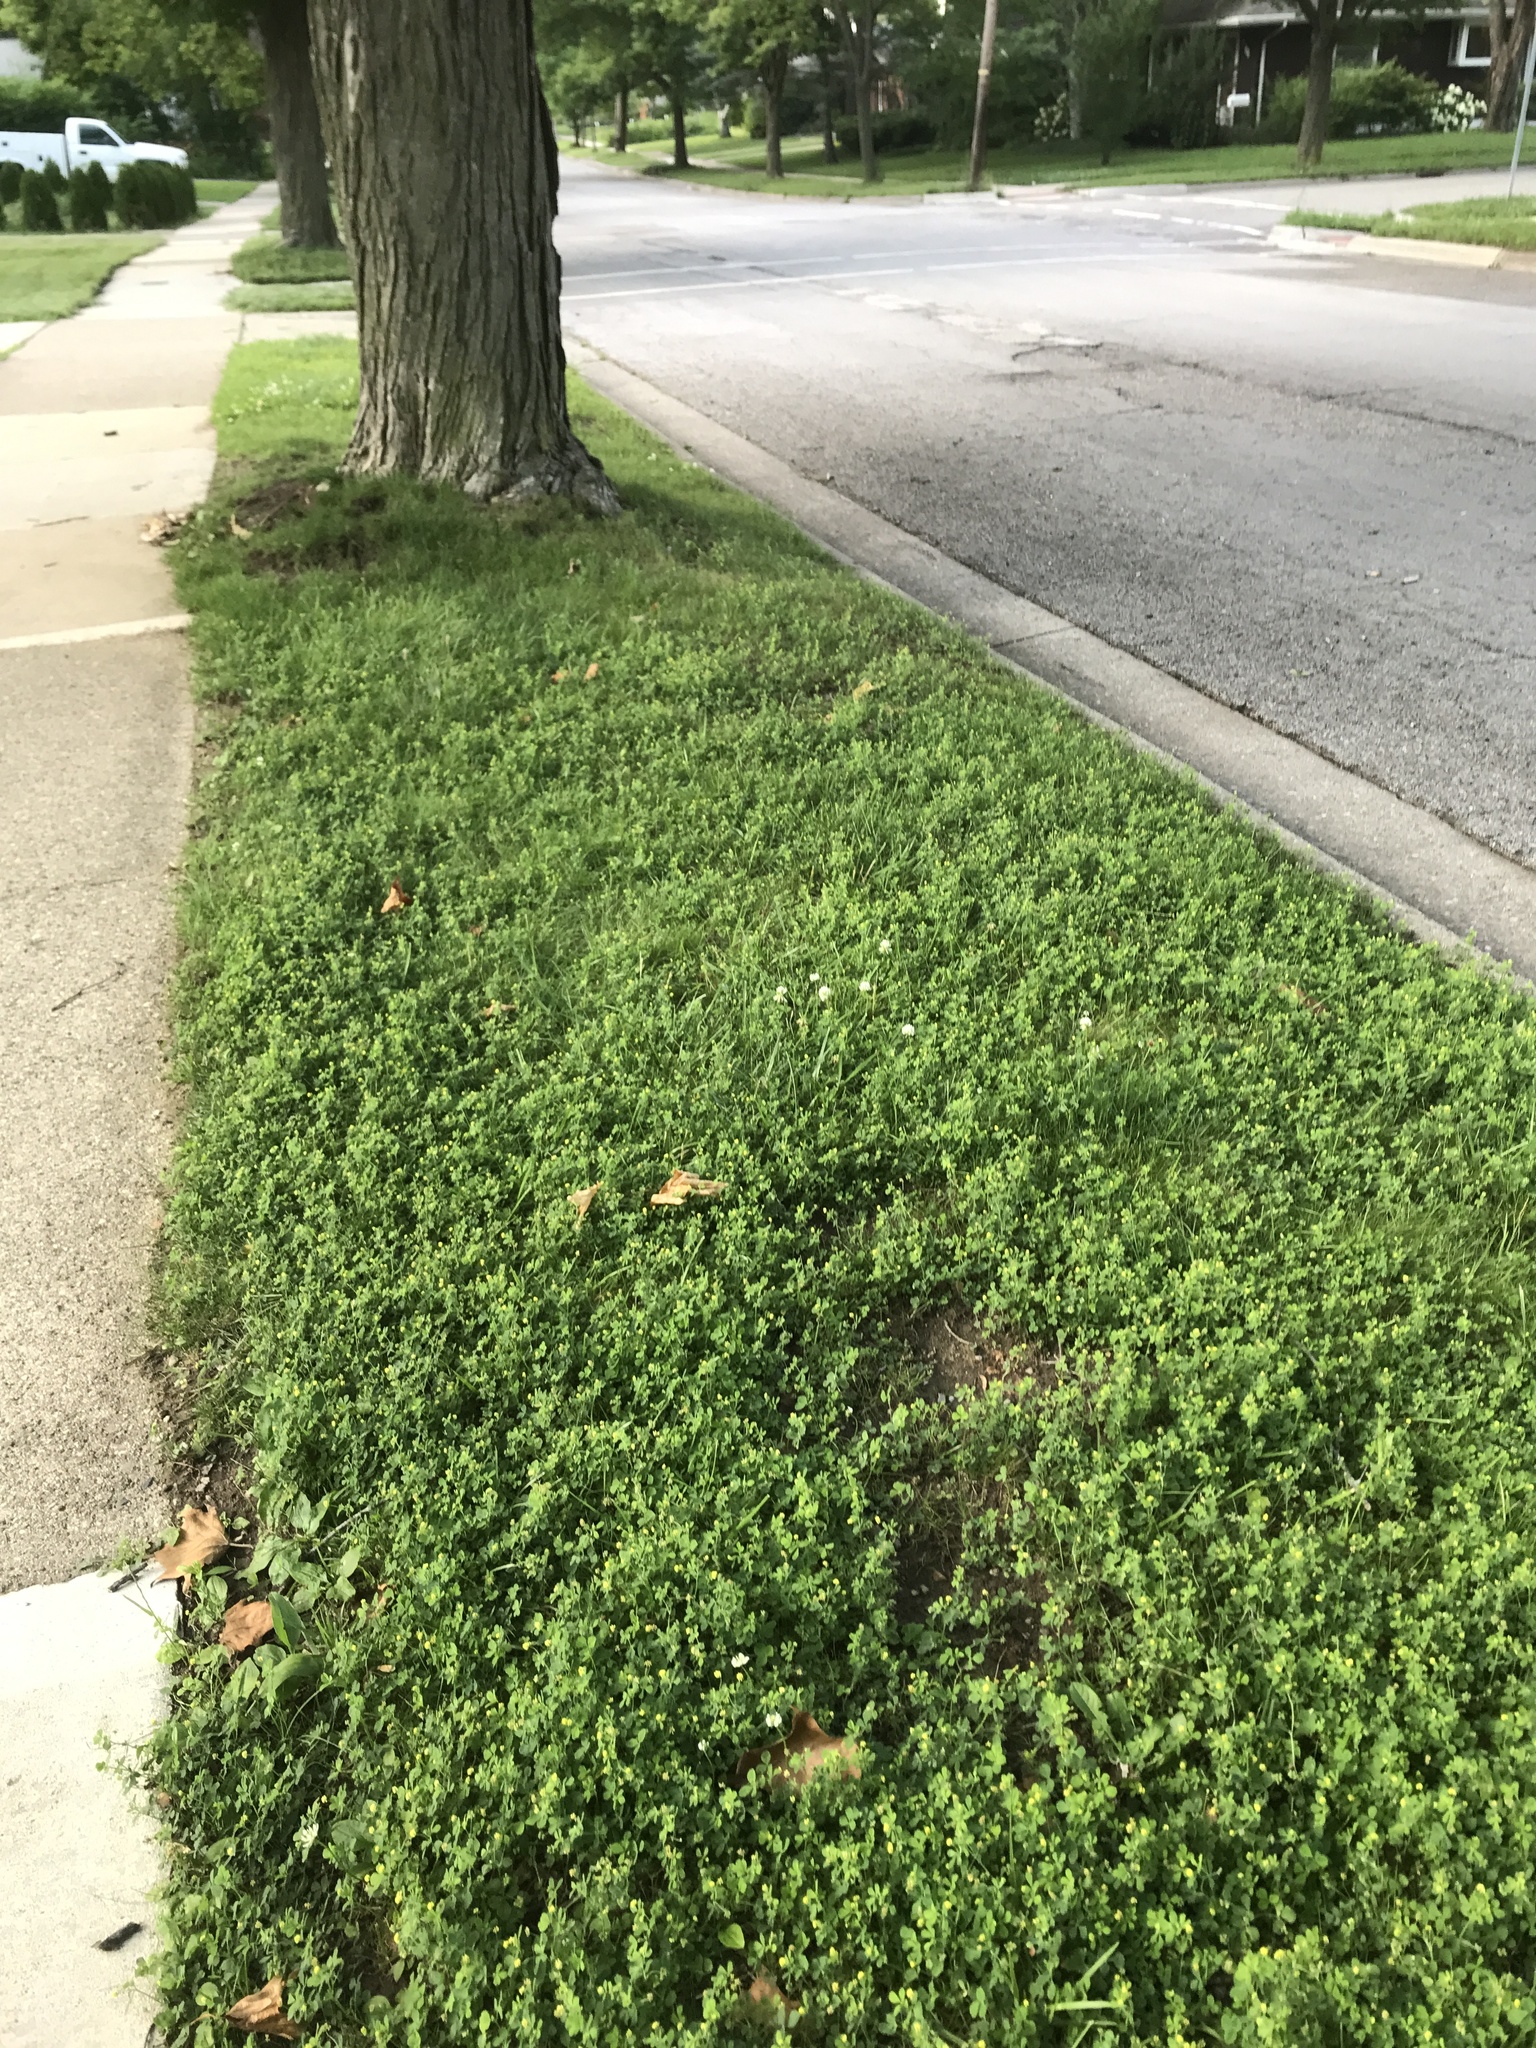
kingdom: Plantae
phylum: Tracheophyta
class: Magnoliopsida
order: Fabales
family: Fabaceae
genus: Medicago
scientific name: Medicago lupulina
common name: Black medick
